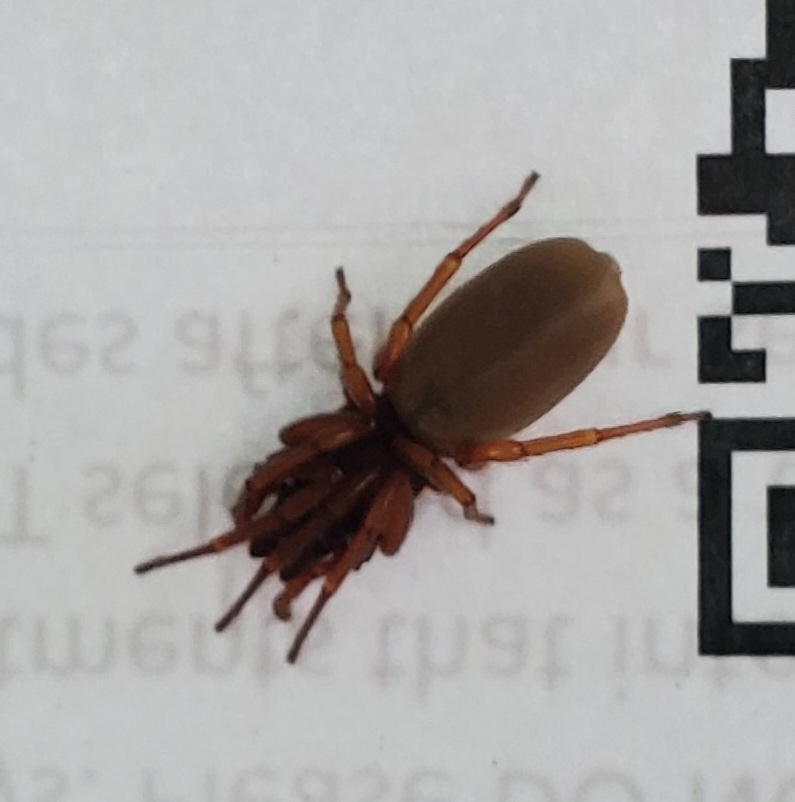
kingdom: Animalia
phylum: Arthropoda
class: Arachnida
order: Araneae
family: Dysderidae
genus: Dysdera
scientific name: Dysdera crocata
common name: Woodlouse spider
